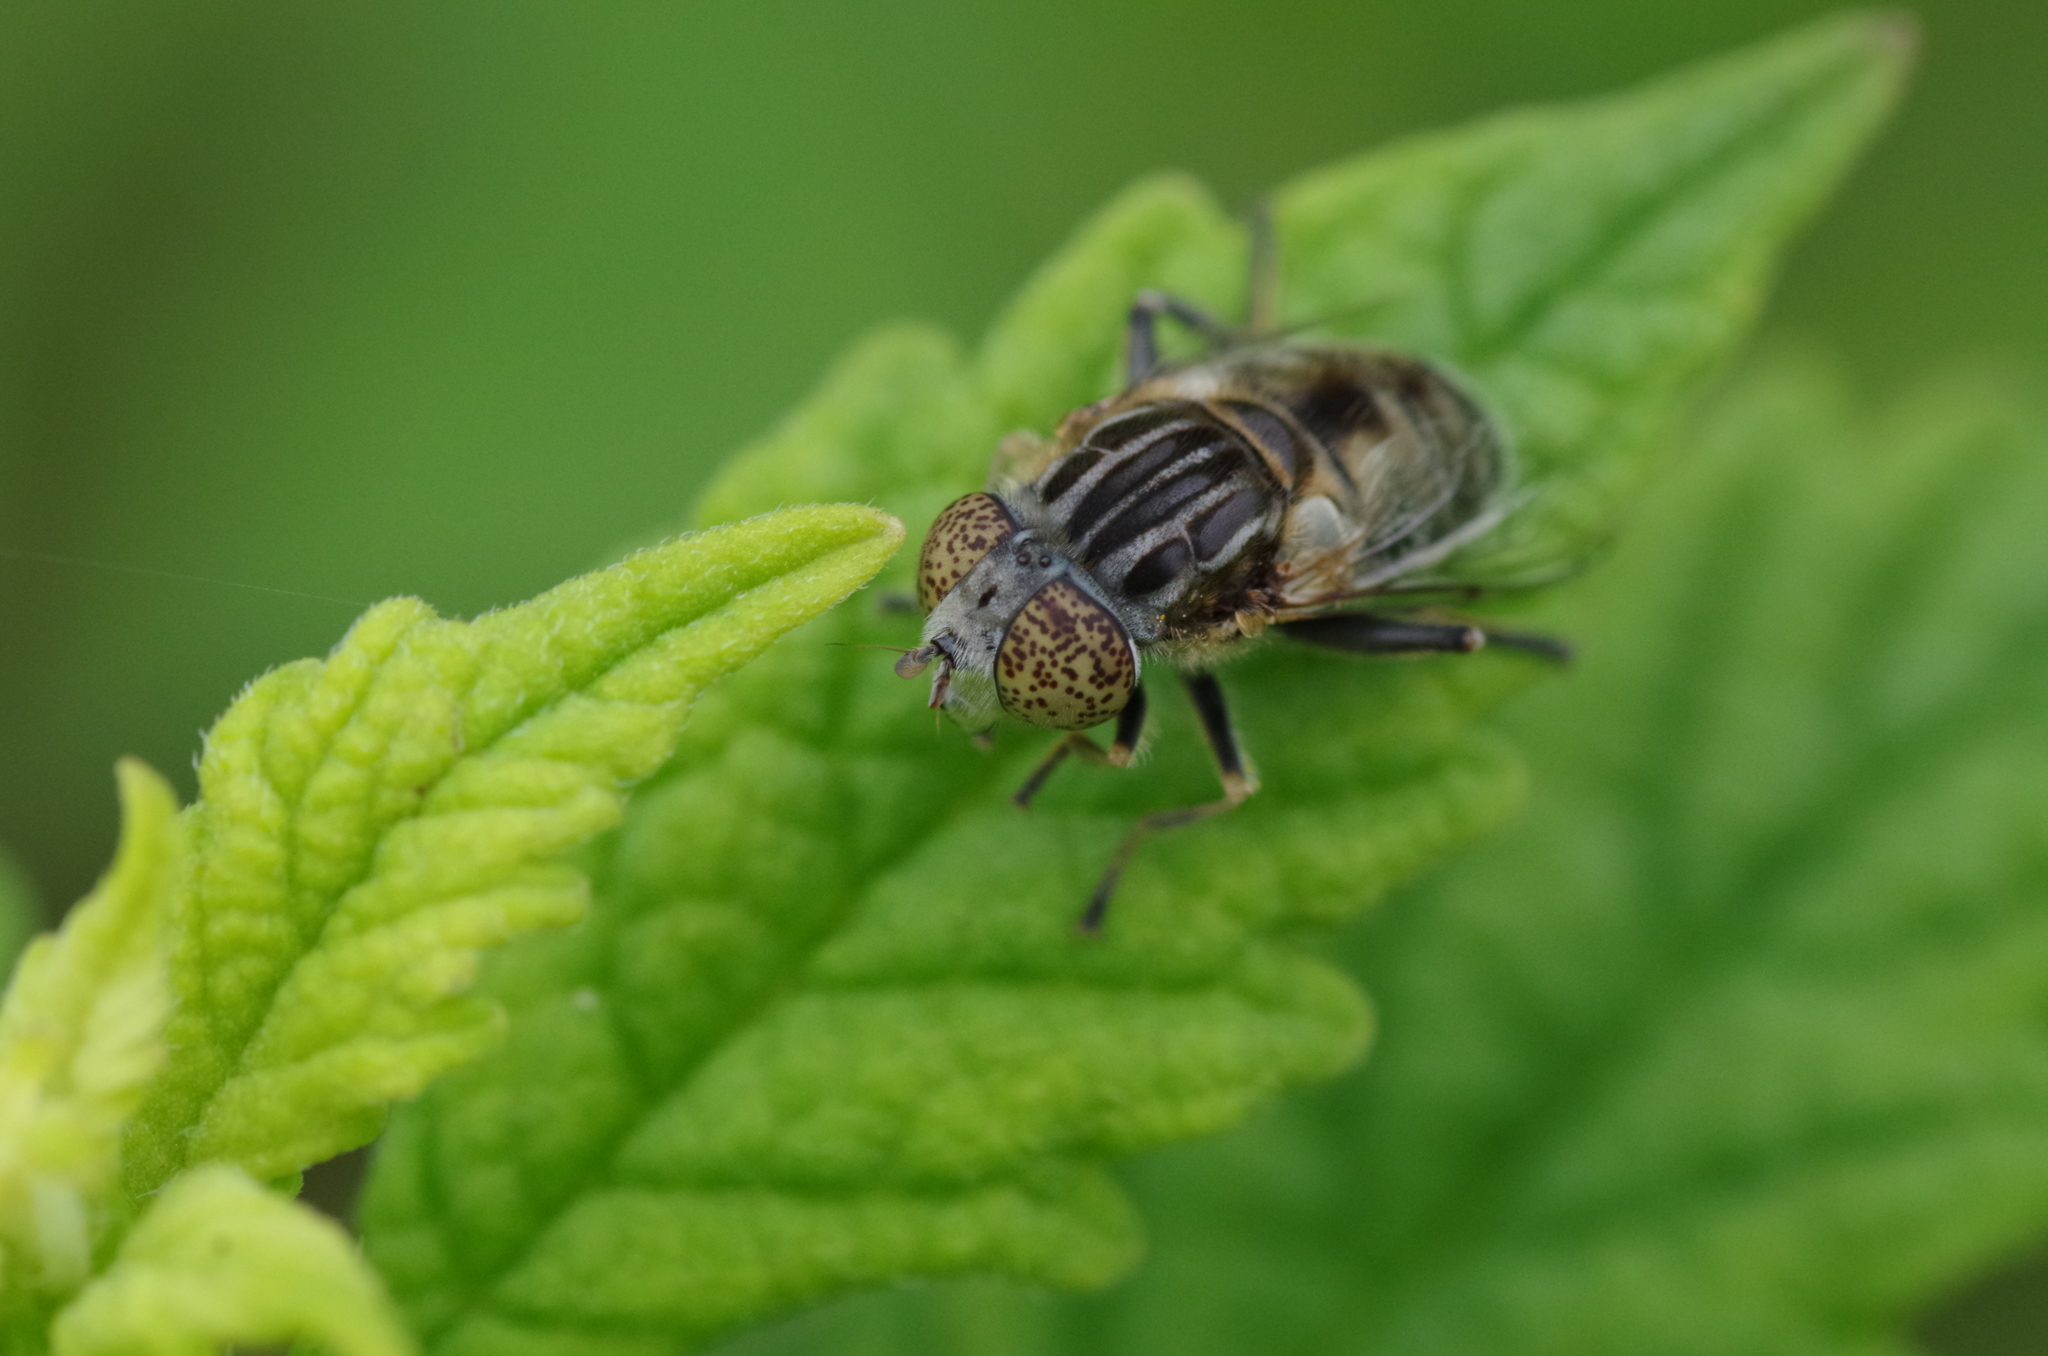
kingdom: Animalia
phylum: Arthropoda
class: Insecta
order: Diptera
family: Syrphidae
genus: Eristalinus
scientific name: Eristalinus sepulchralis
